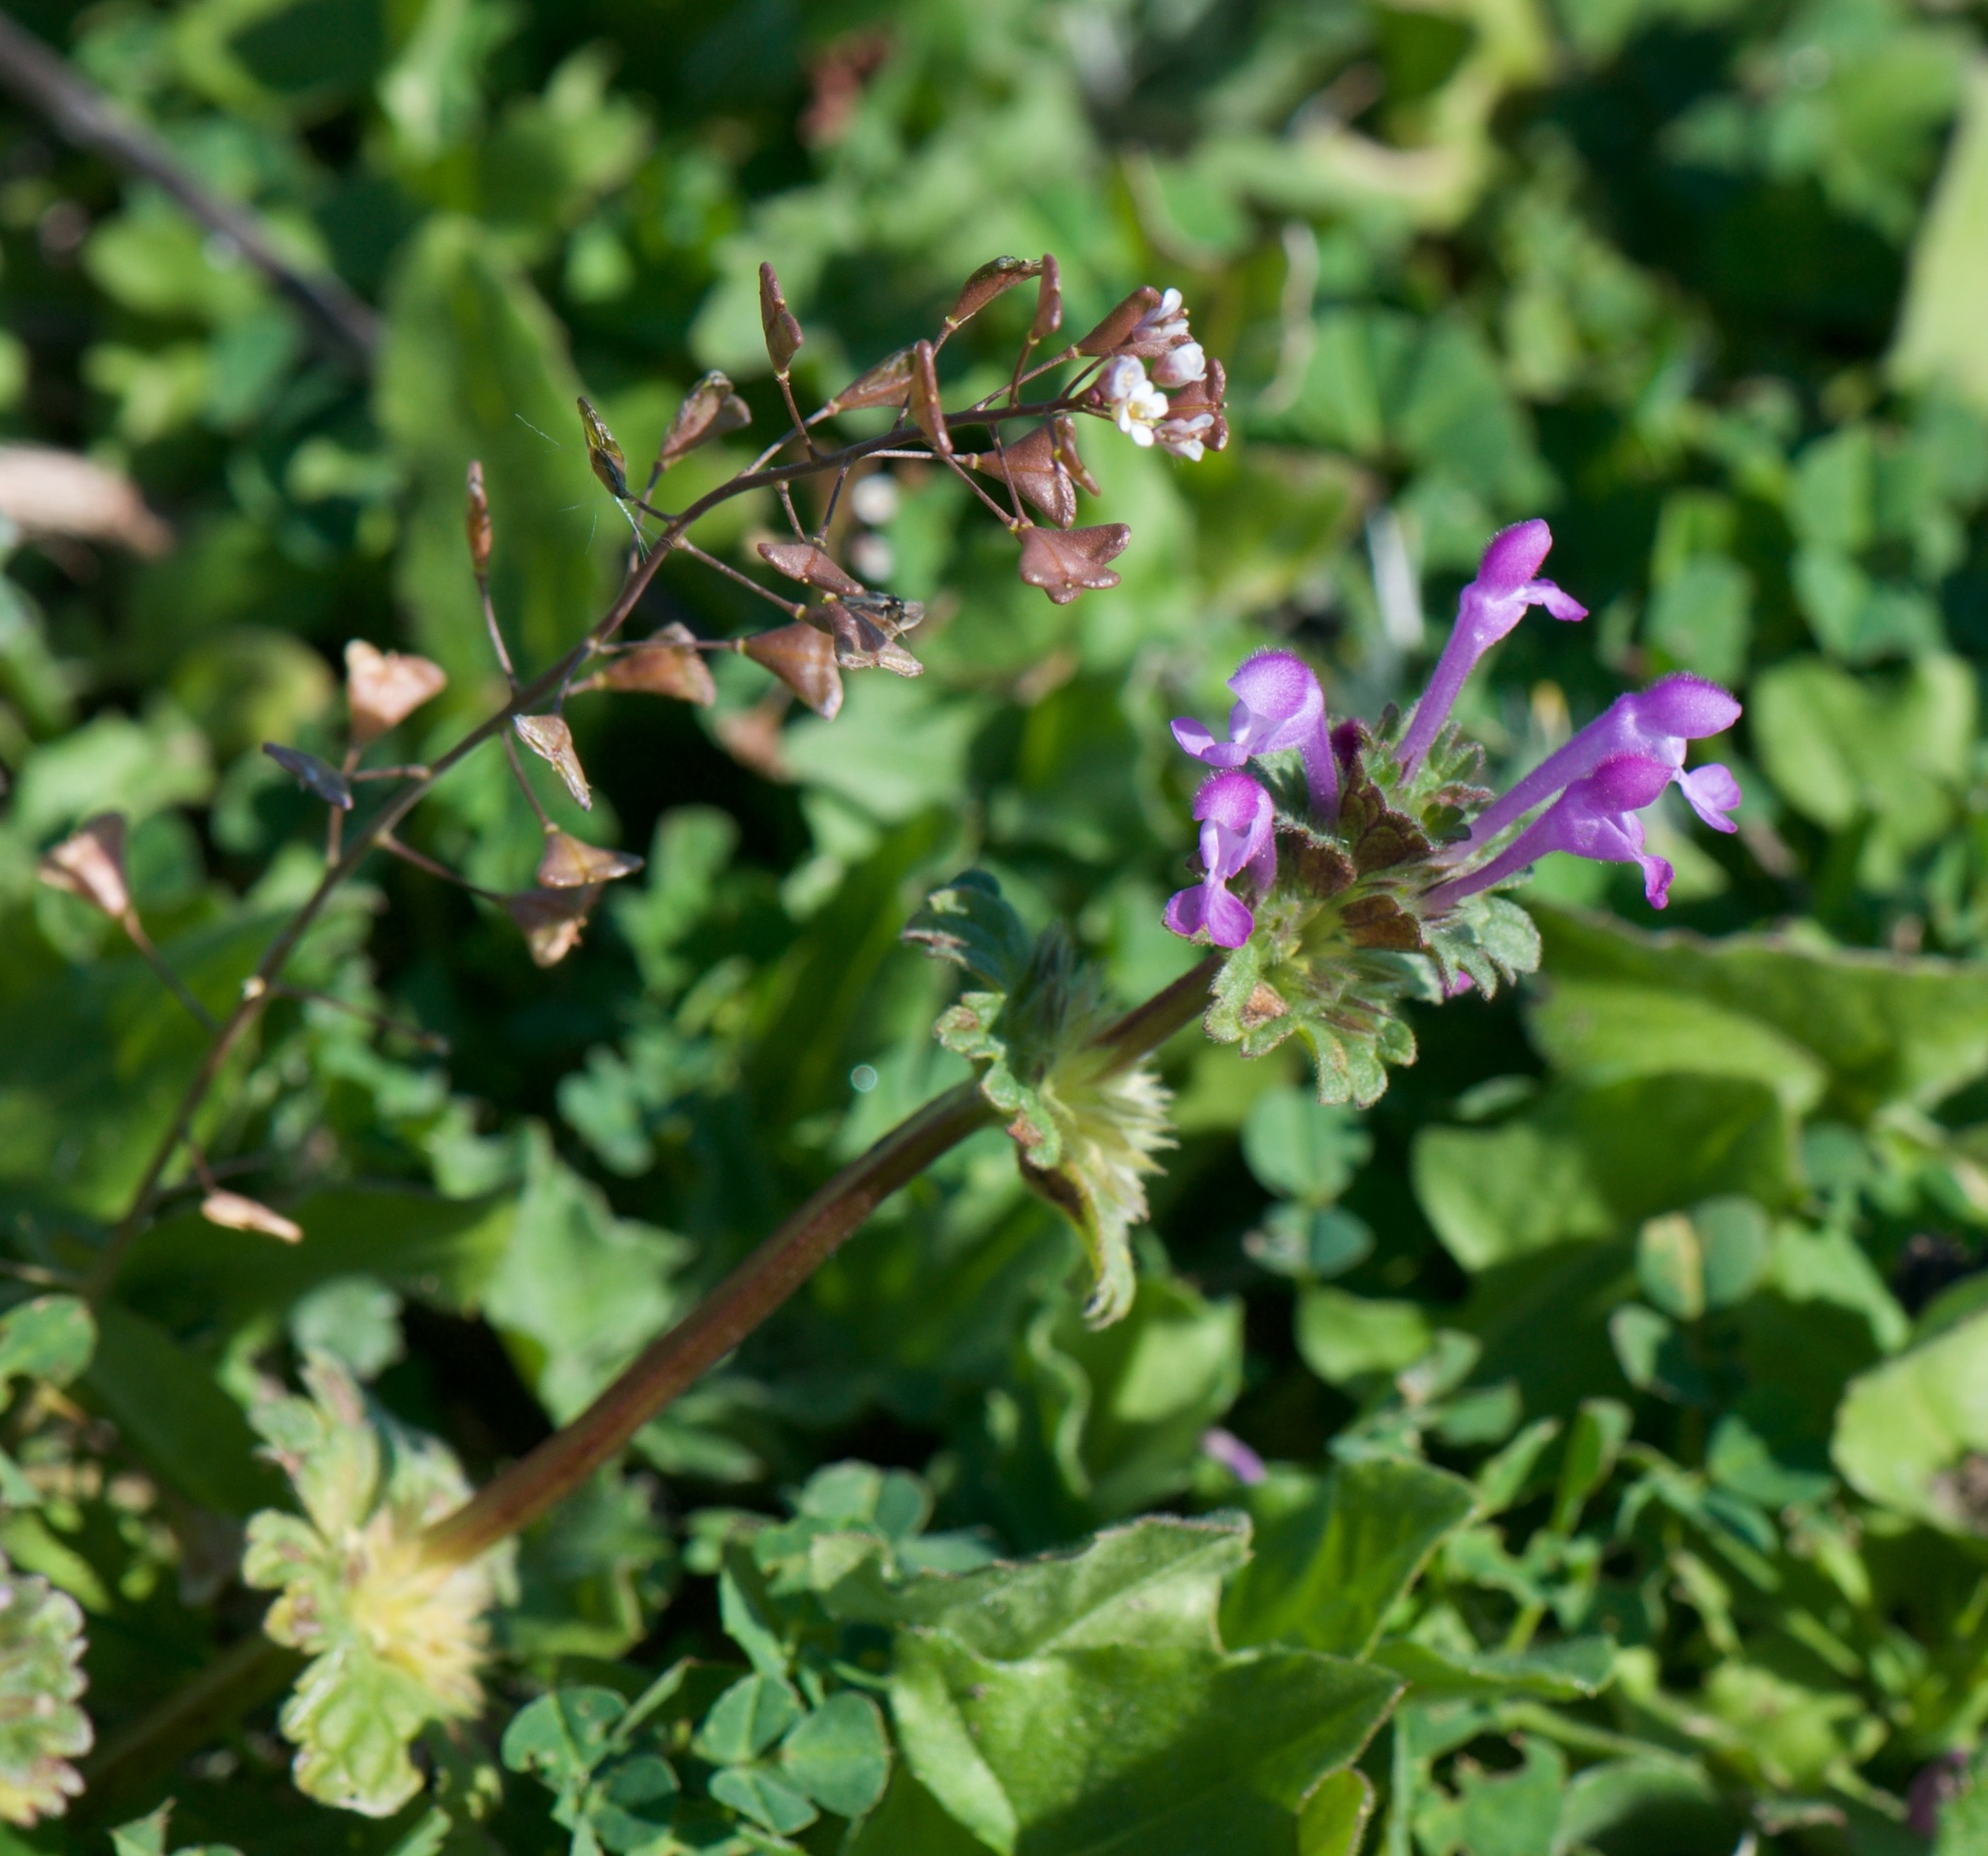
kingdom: Plantae
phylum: Tracheophyta
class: Magnoliopsida
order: Lamiales
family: Lamiaceae
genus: Lamium
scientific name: Lamium amplexicaule
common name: Henbit dead-nettle
